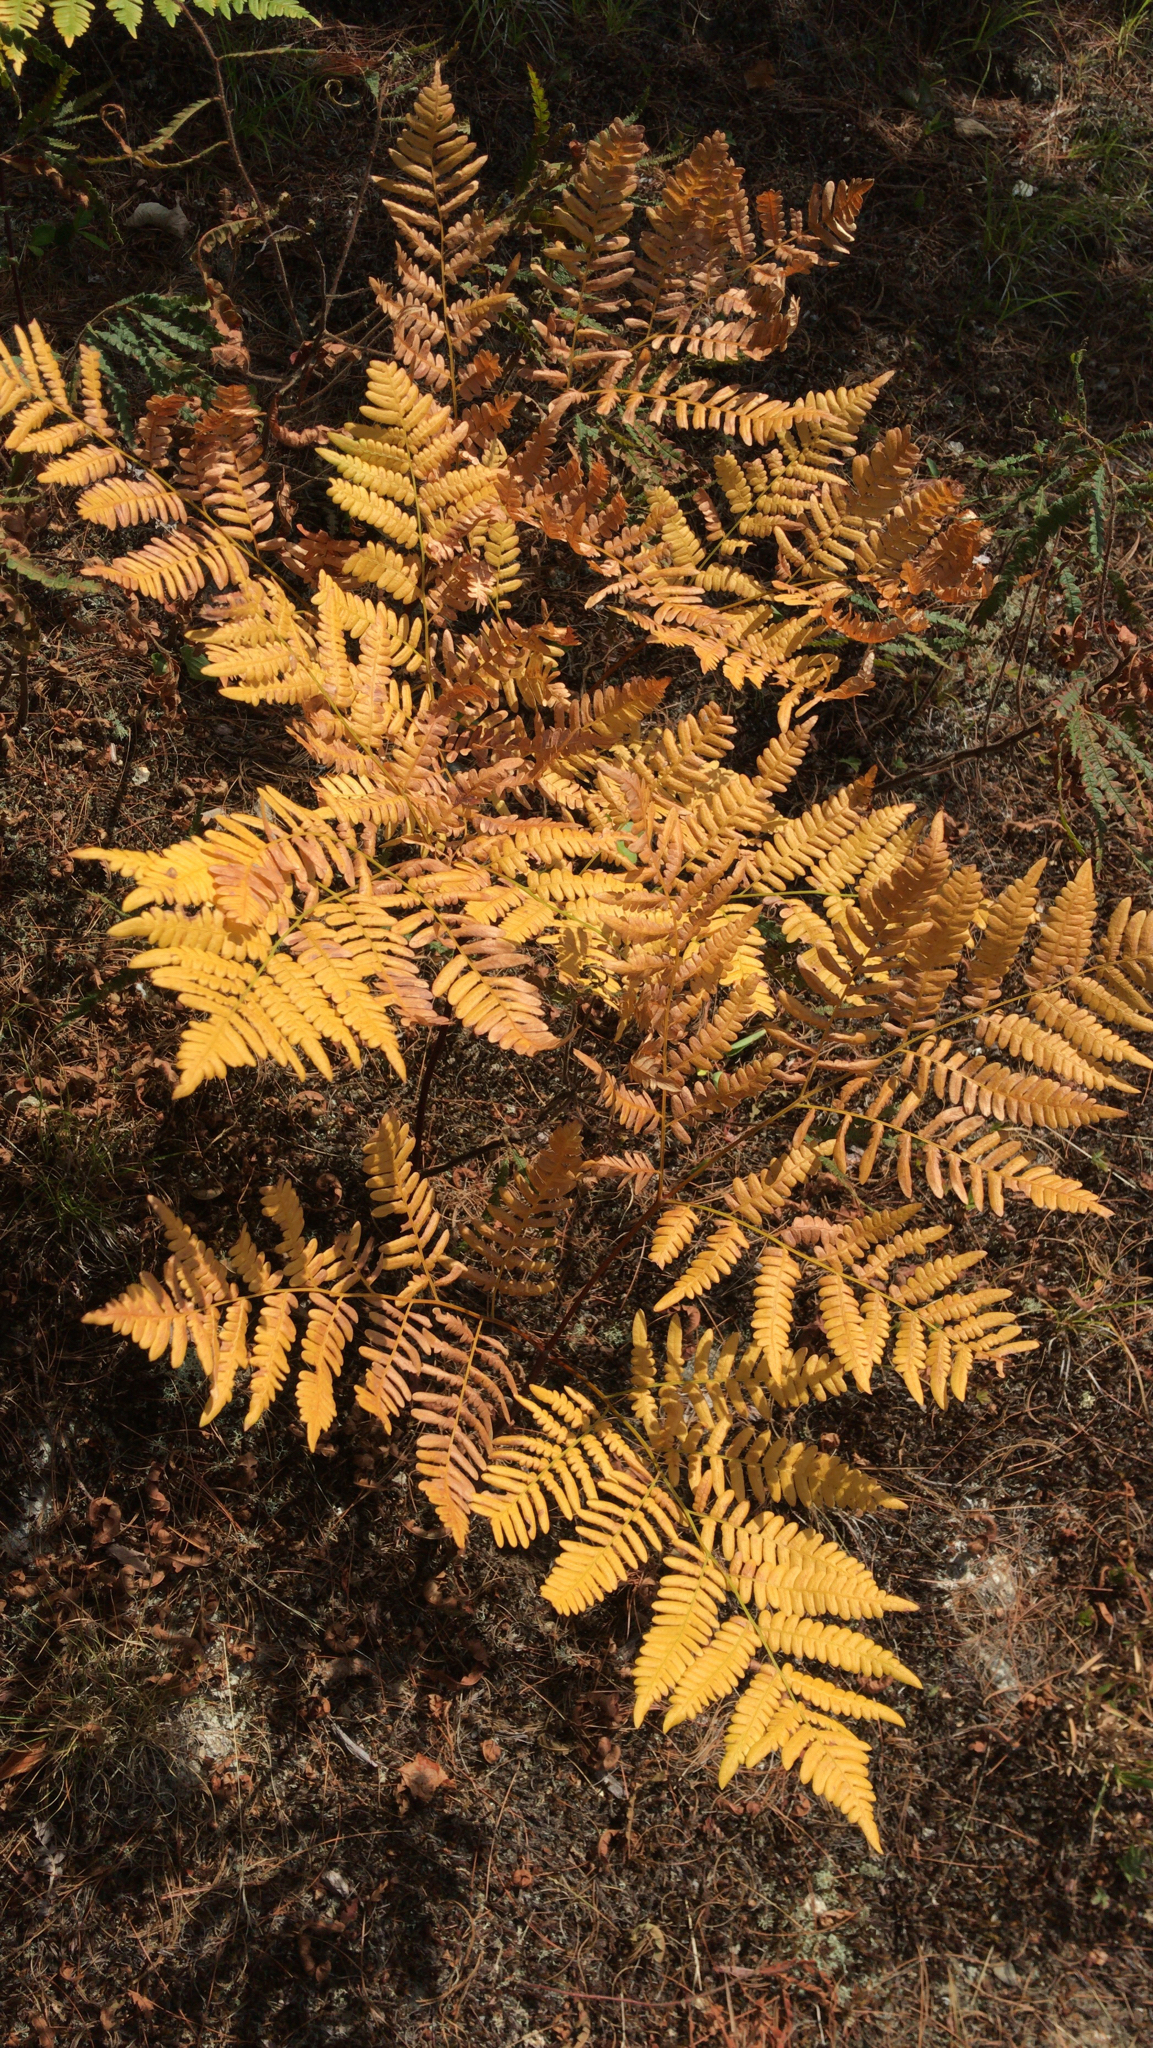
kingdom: Plantae
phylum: Tracheophyta
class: Polypodiopsida
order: Polypodiales
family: Dennstaedtiaceae
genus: Pteridium
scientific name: Pteridium aquilinum
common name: Bracken
